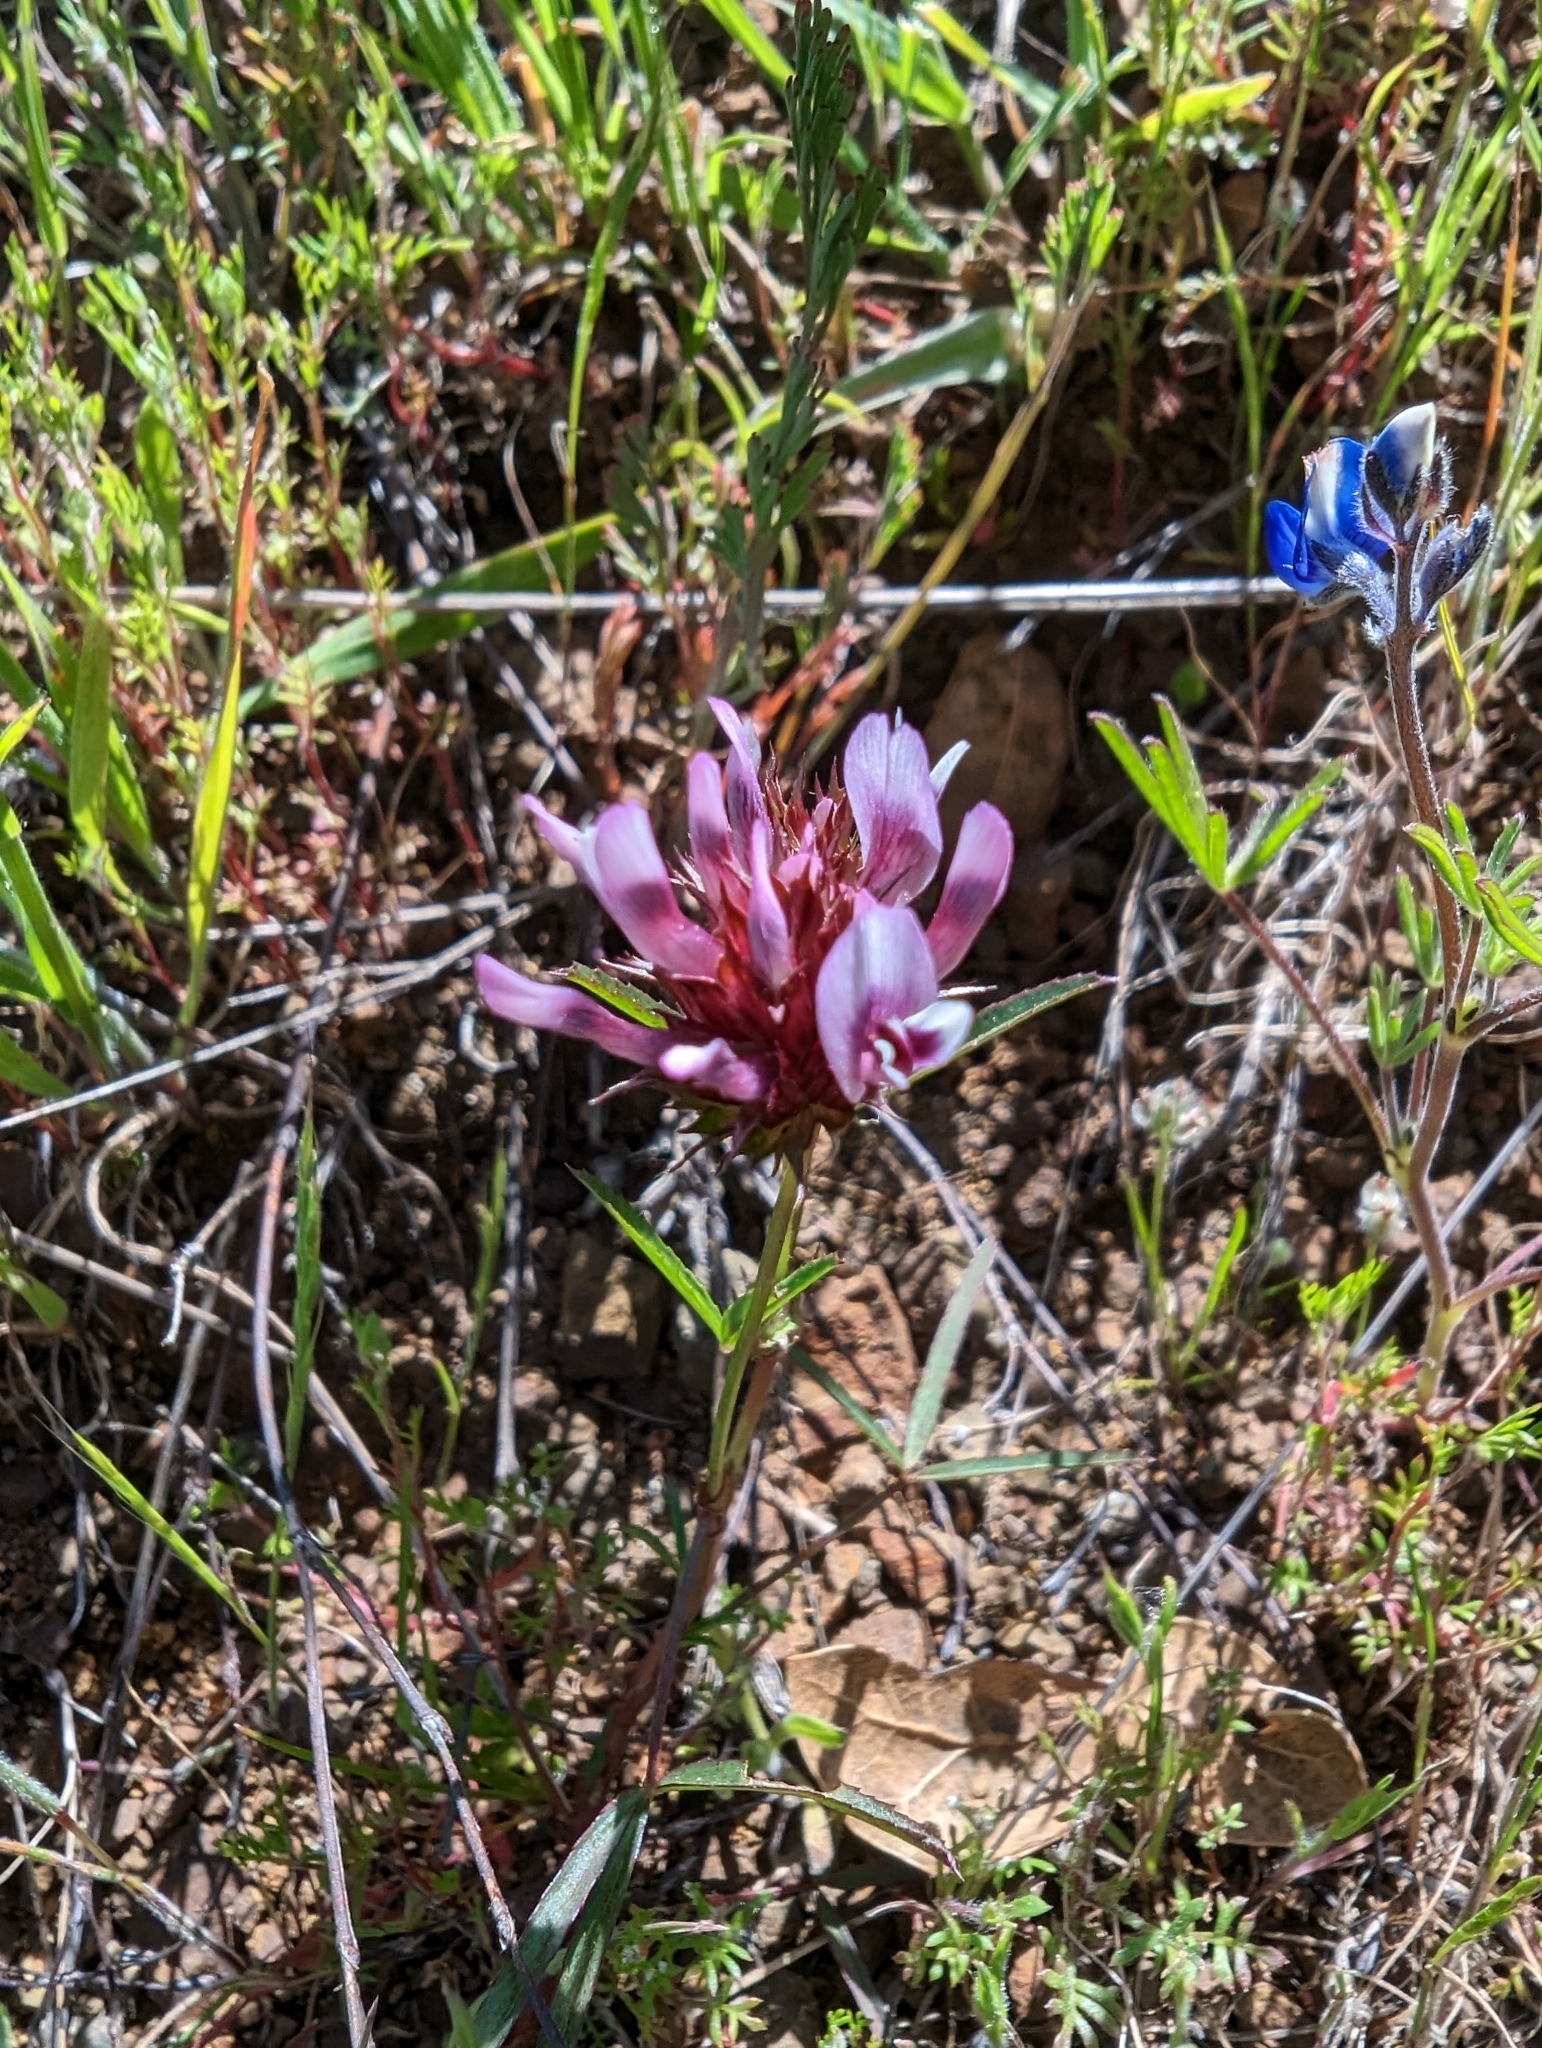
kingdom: Plantae
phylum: Tracheophyta
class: Magnoliopsida
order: Fabales
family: Fabaceae
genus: Trifolium
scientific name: Trifolium willdenovii
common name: Tomcat clover
